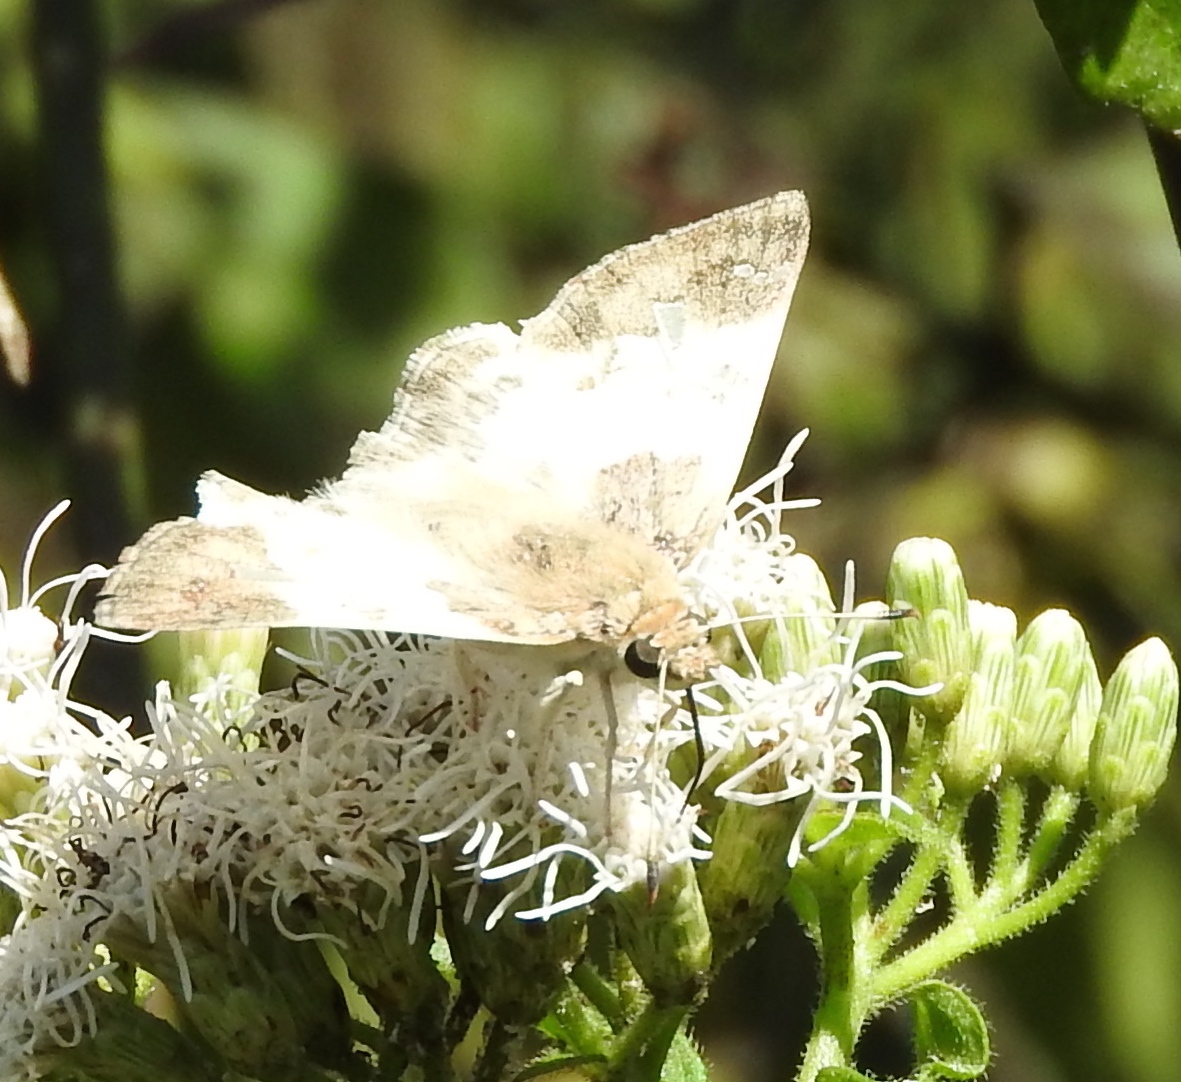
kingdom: Animalia
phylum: Arthropoda
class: Insecta
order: Lepidoptera
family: Hesperiidae
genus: Polyctor
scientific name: Polyctor cleta
